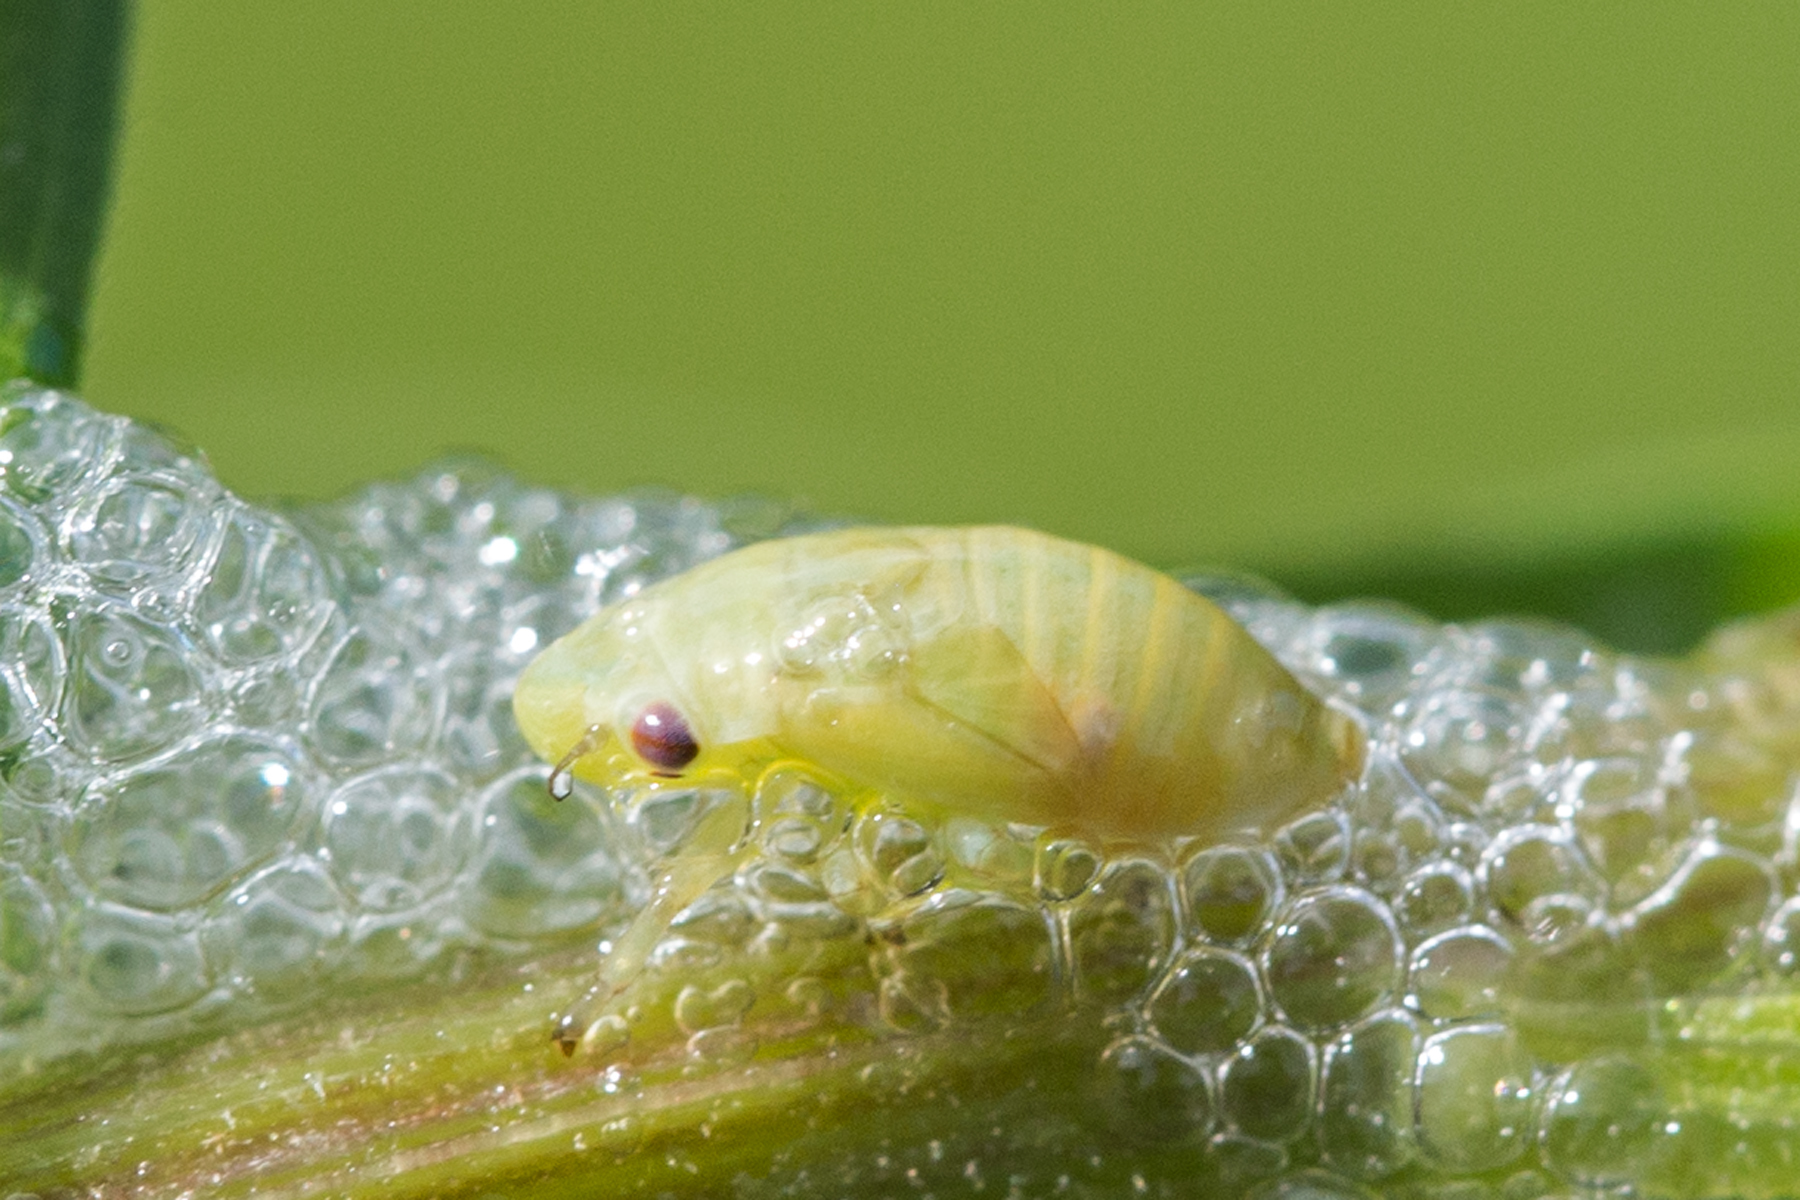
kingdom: Animalia
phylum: Arthropoda
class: Insecta
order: Hemiptera
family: Aphrophoridae
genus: Philaenus
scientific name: Philaenus spumarius
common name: Meadow spittlebug
